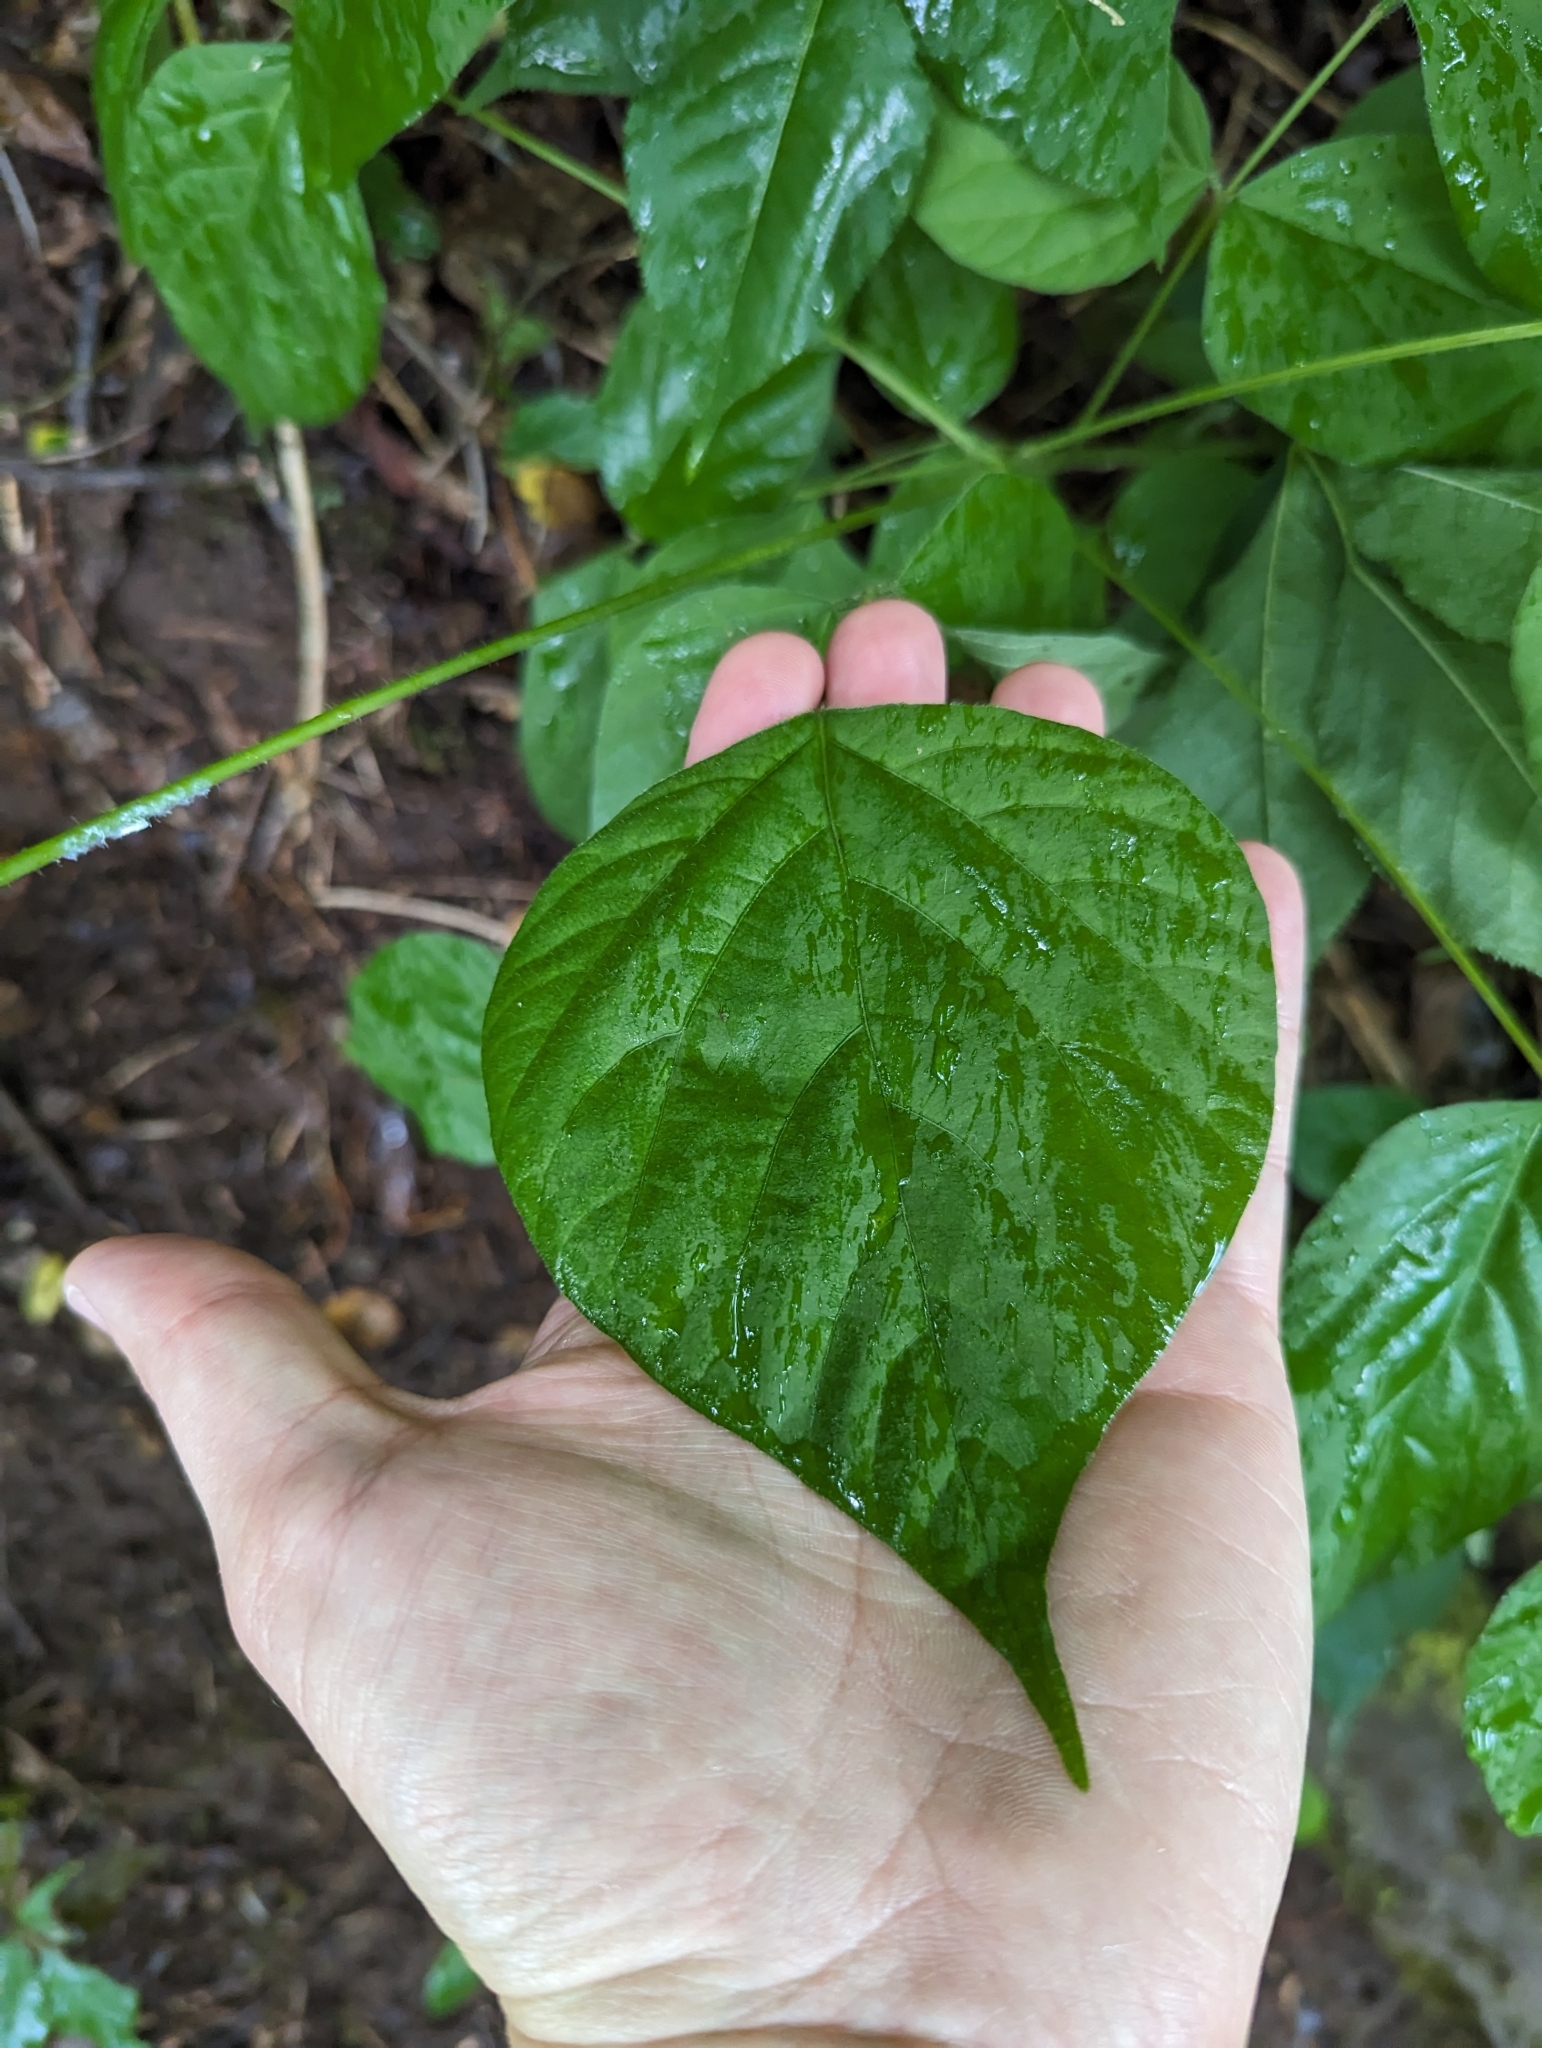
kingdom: Plantae
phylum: Tracheophyta
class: Magnoliopsida
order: Fabales
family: Fabaceae
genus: Hylodesmum
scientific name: Hylodesmum glutinosum
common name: Clustered-leaved tick-trefoil
